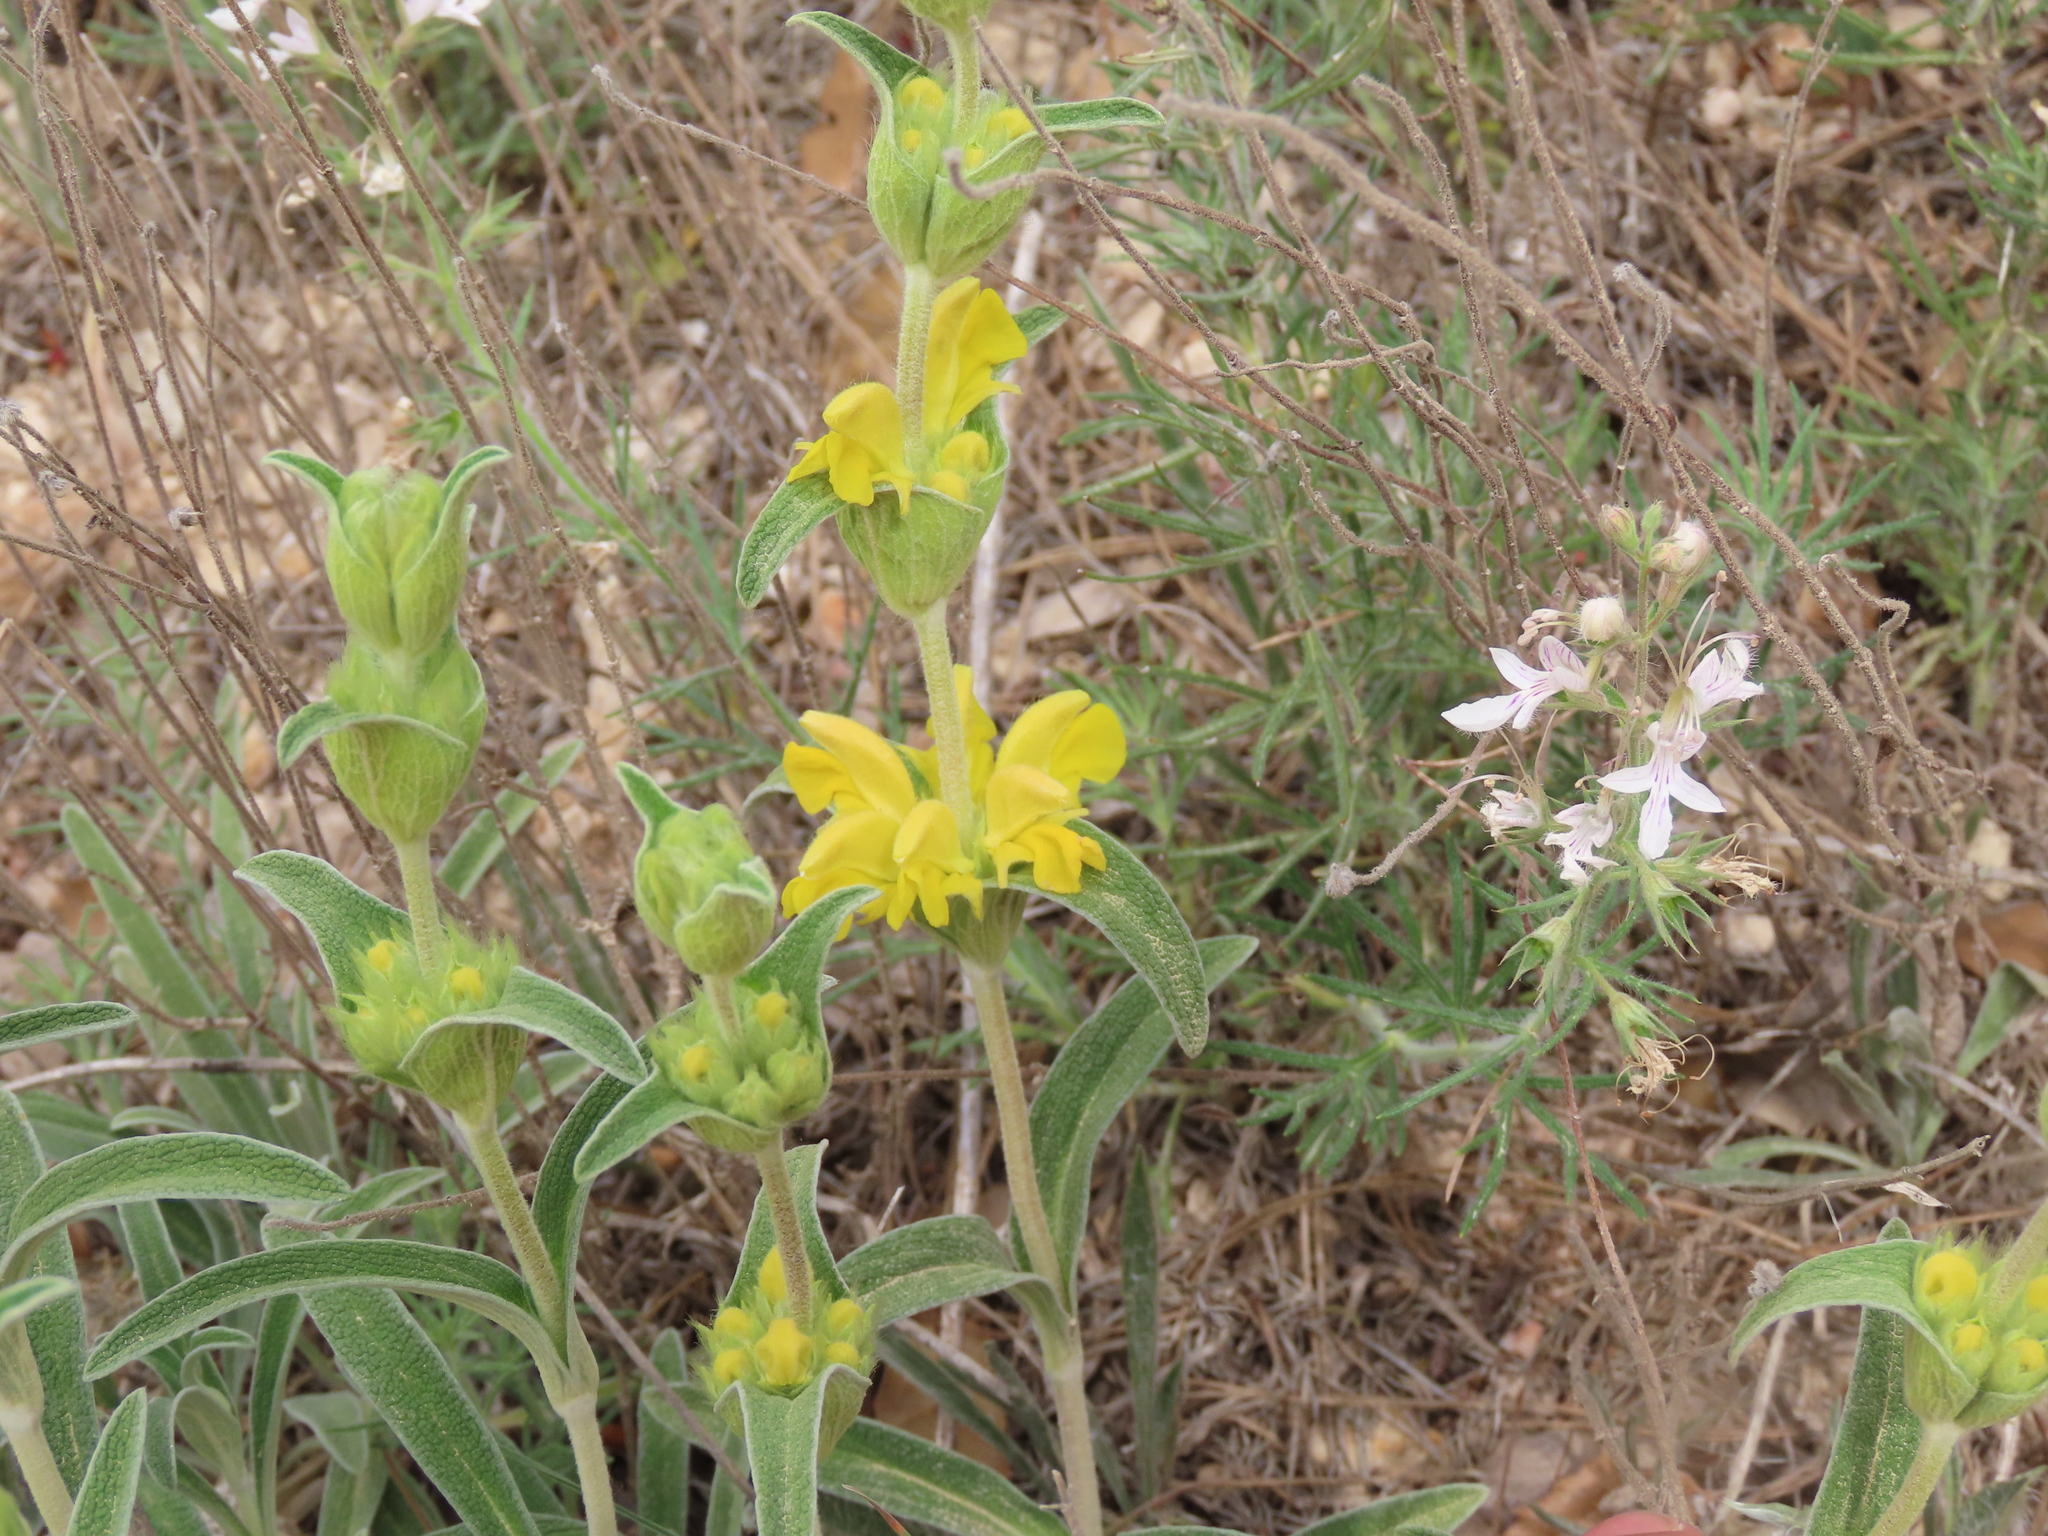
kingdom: Plantae
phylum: Tracheophyta
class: Magnoliopsida
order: Lamiales
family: Lamiaceae
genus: Phlomis
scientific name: Phlomis lychnitis
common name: Lampwickplant
